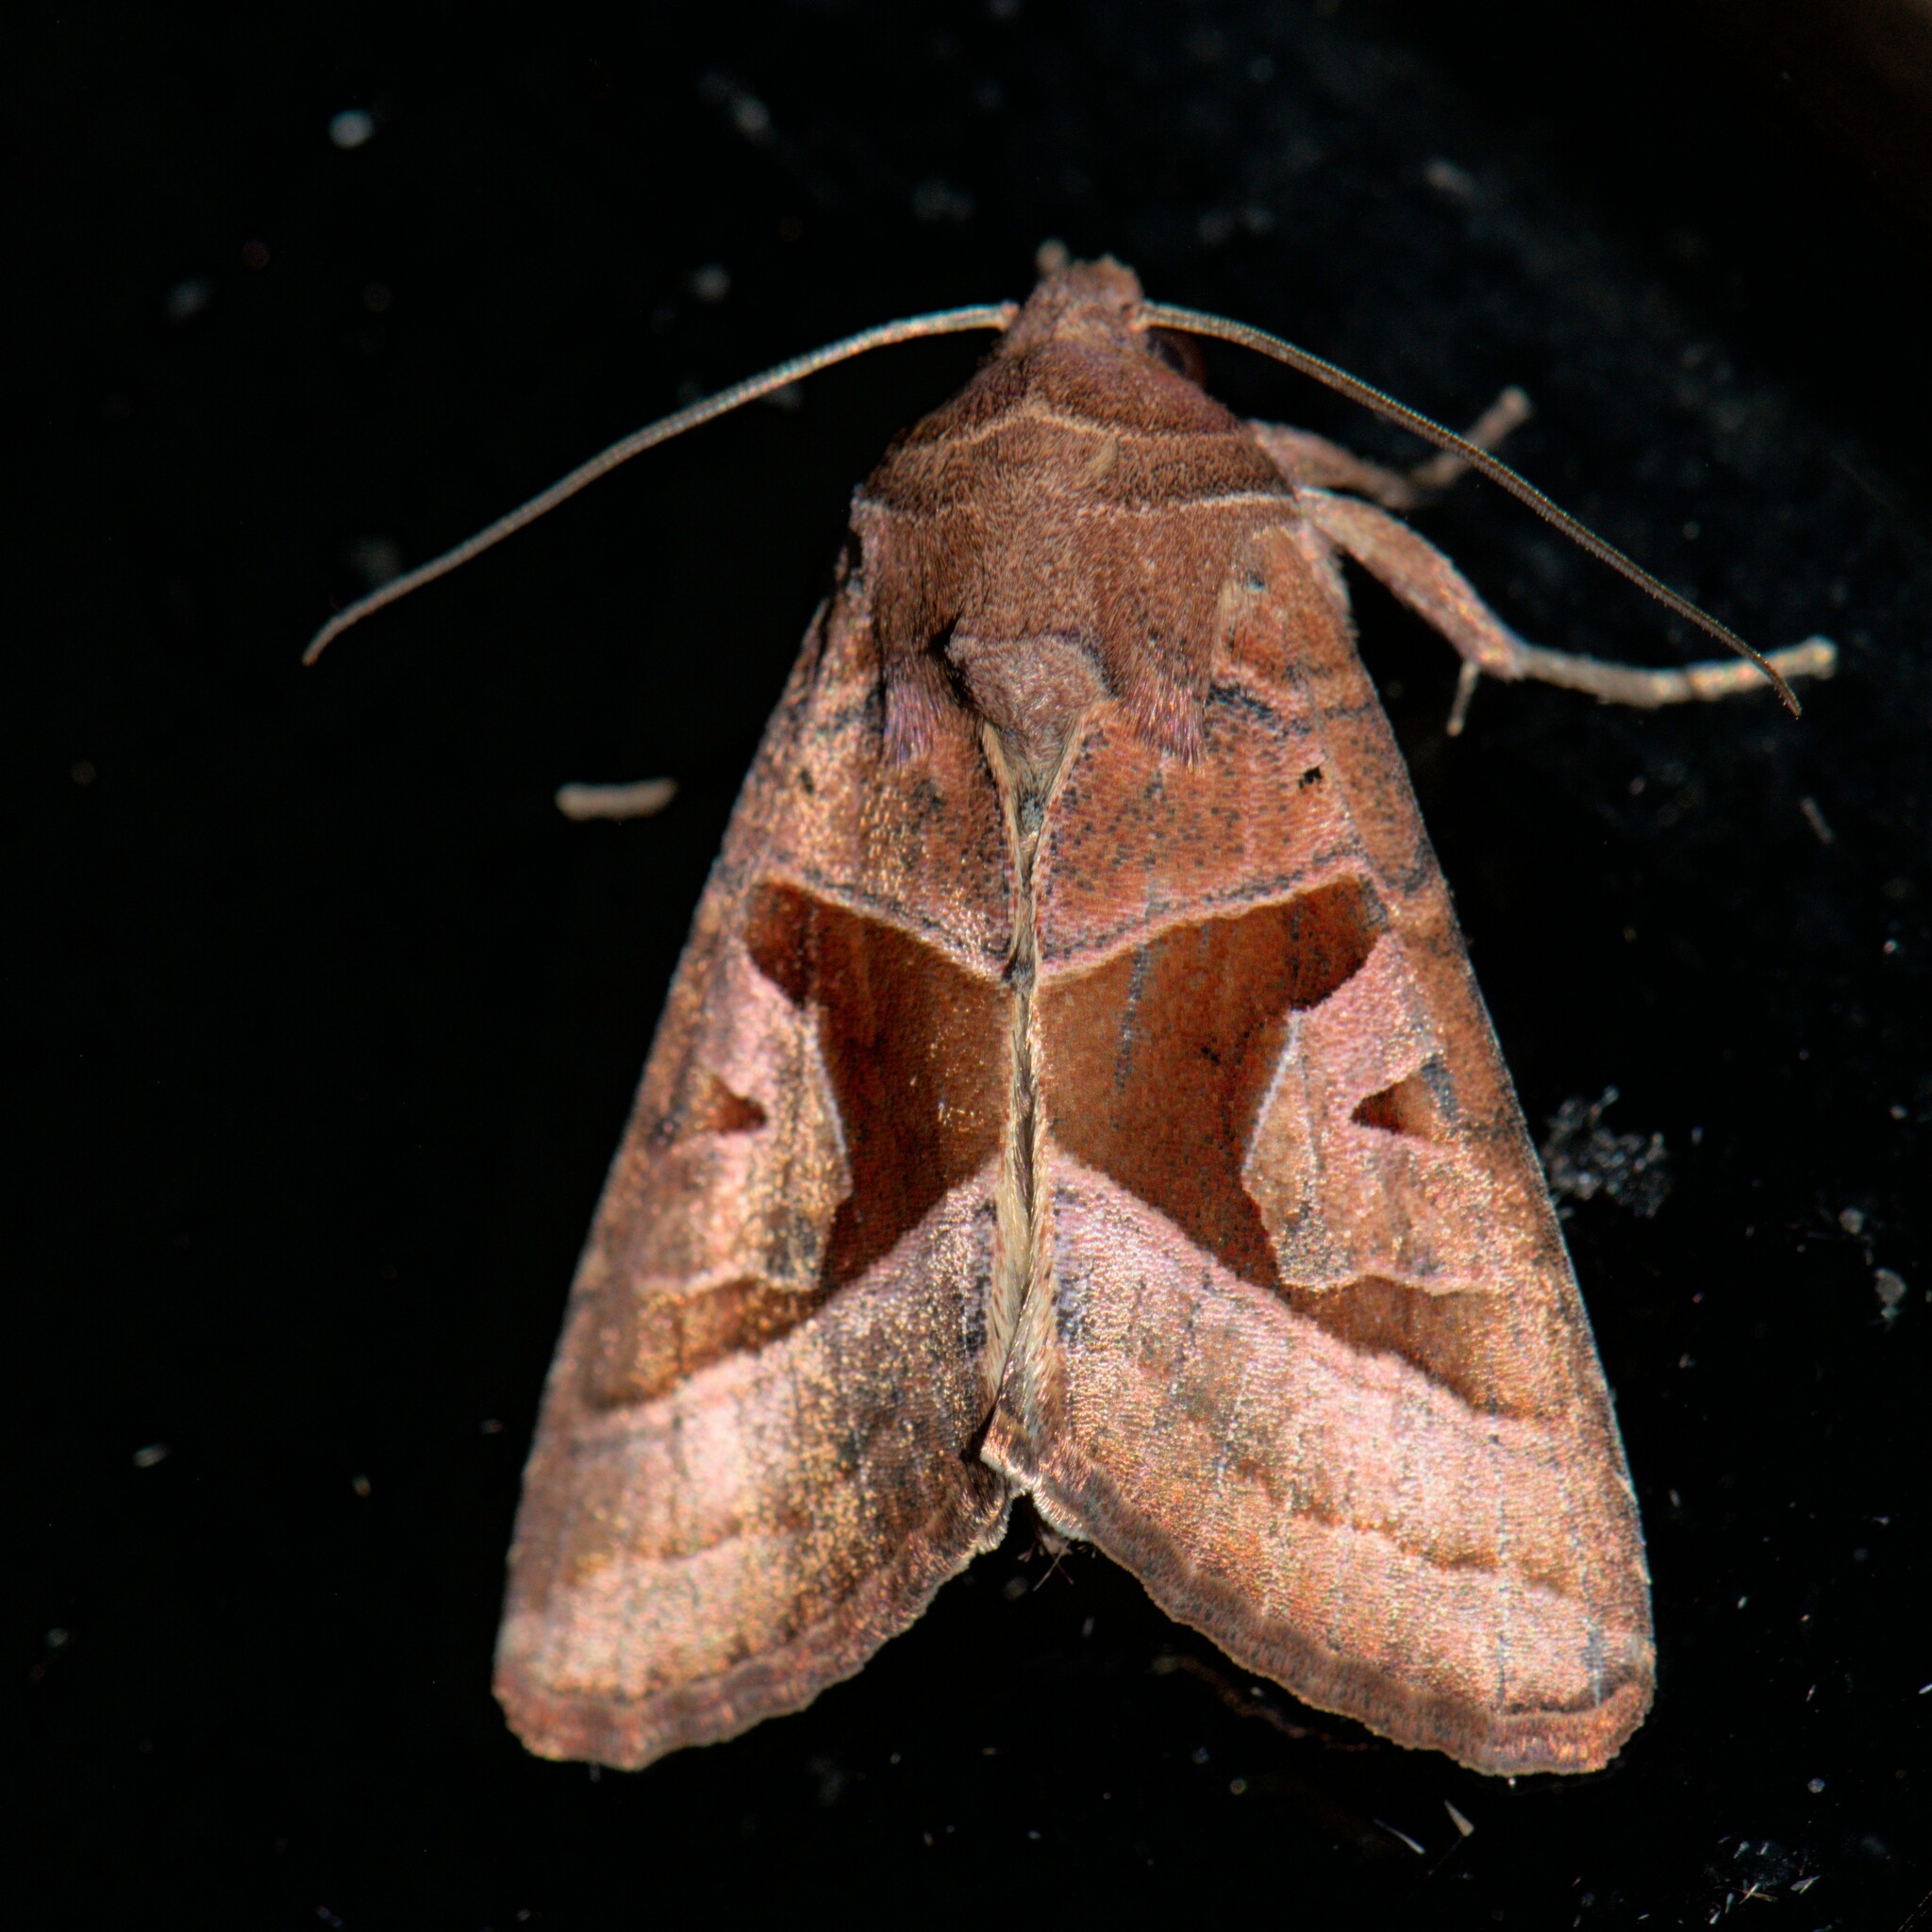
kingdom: Animalia
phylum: Arthropoda
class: Insecta
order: Lepidoptera
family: Noctuidae
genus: Conservula
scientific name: Conservula indica
